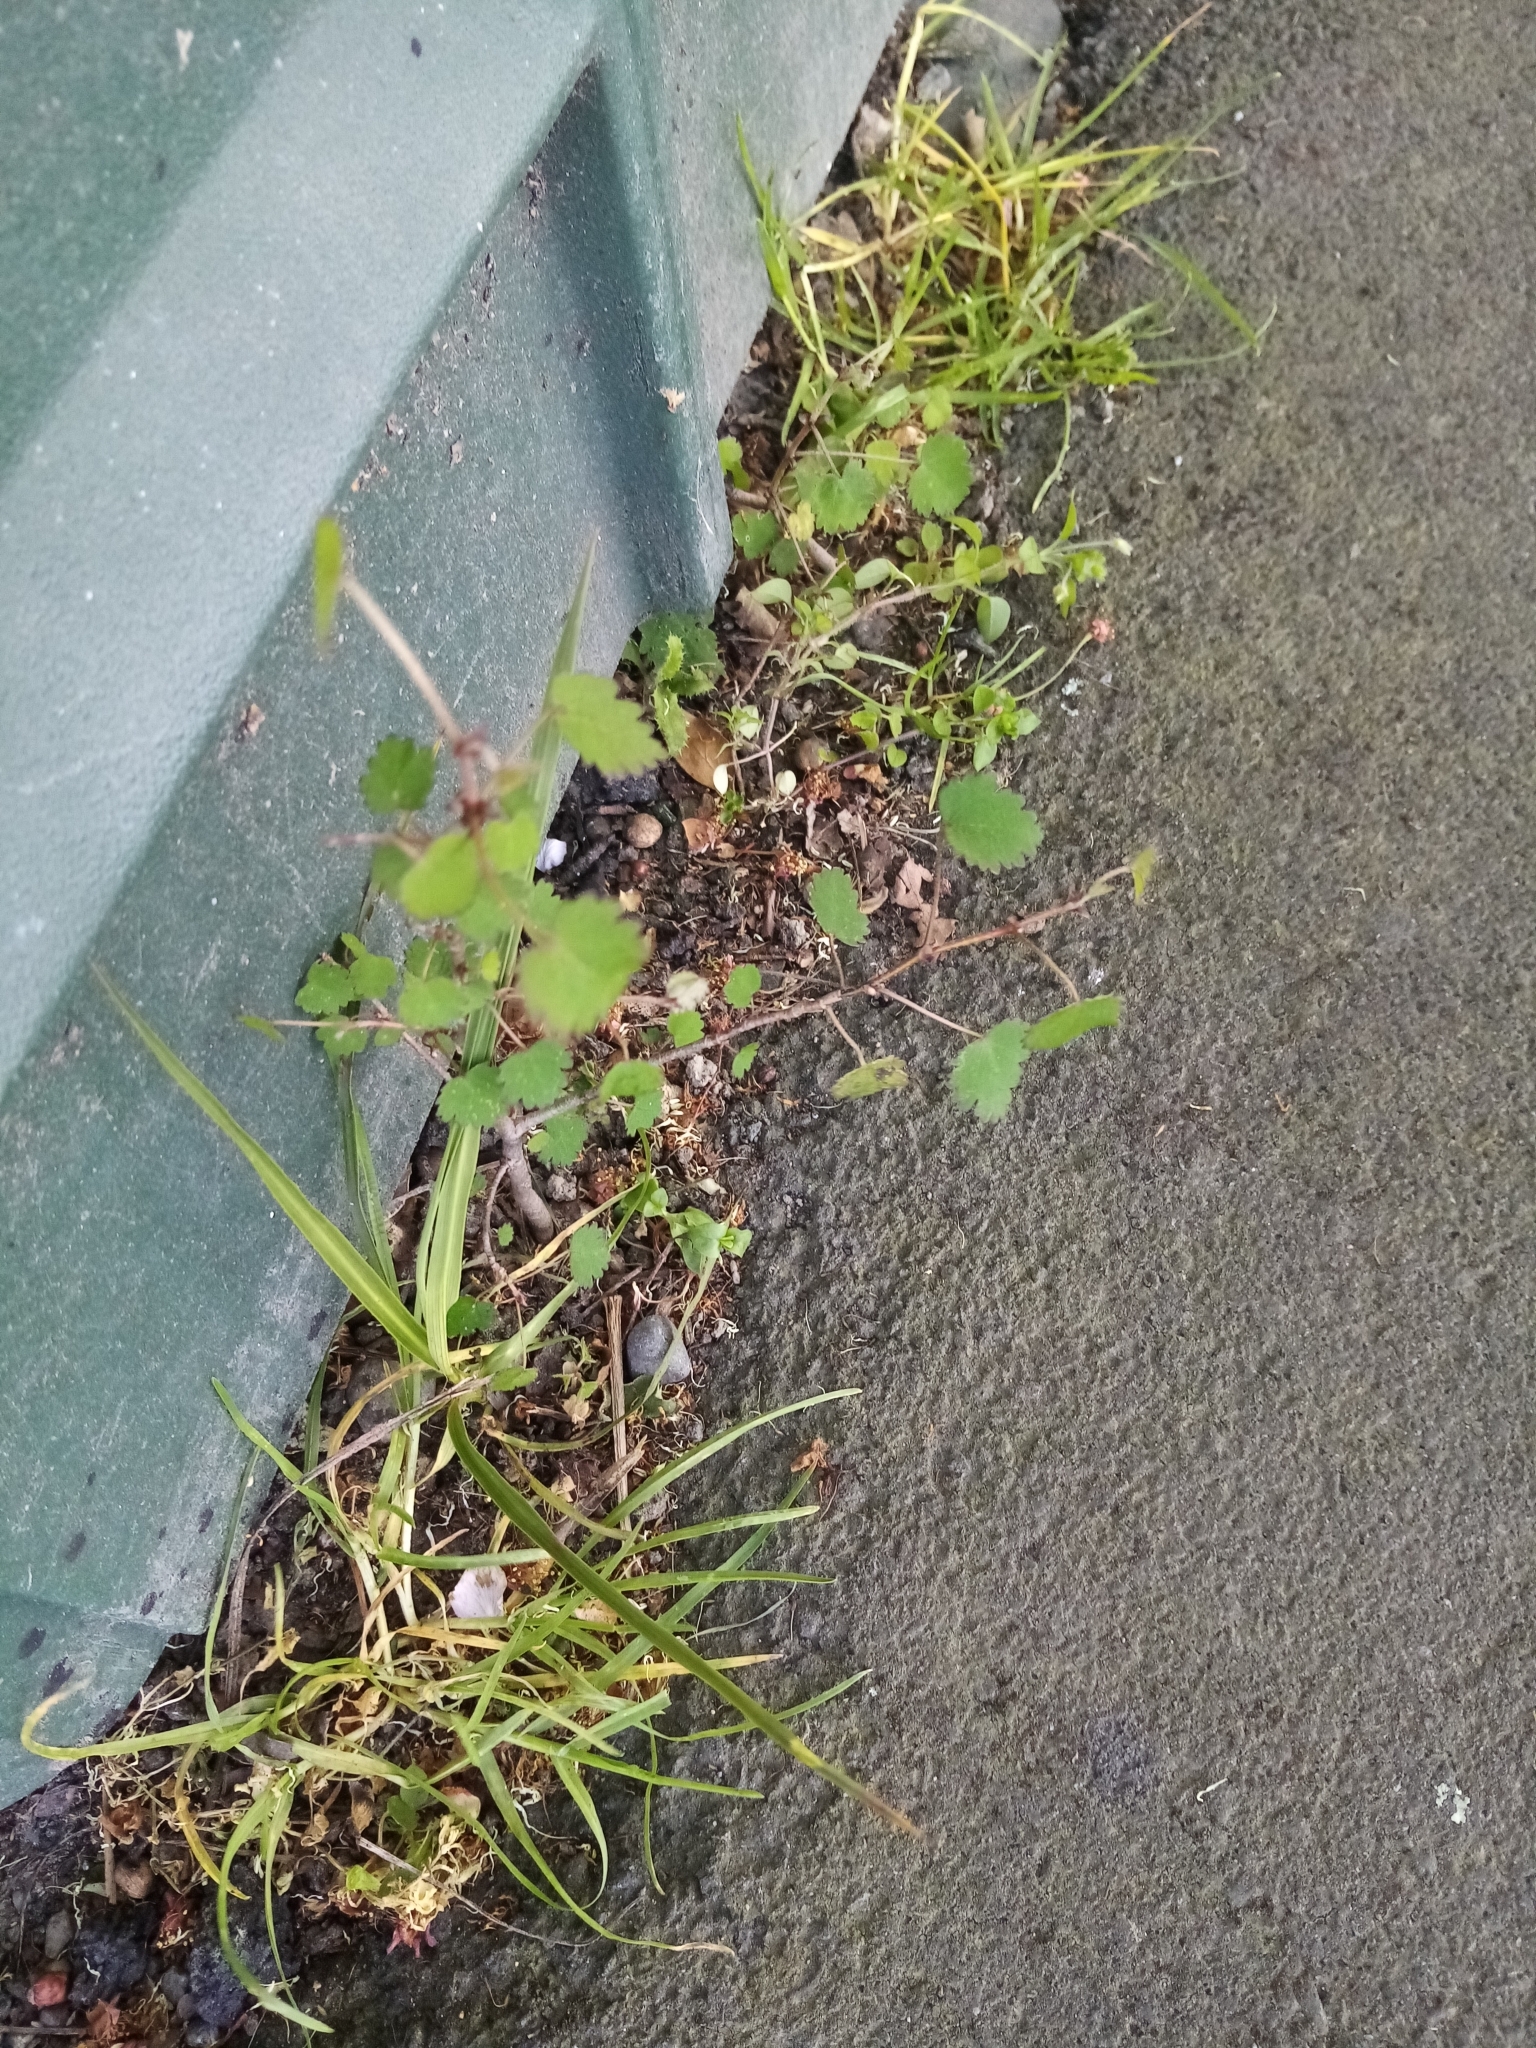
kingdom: Plantae
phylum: Tracheophyta
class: Magnoliopsida
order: Malvales
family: Malvaceae
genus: Plagianthus
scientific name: Plagianthus regius
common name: Manatu
